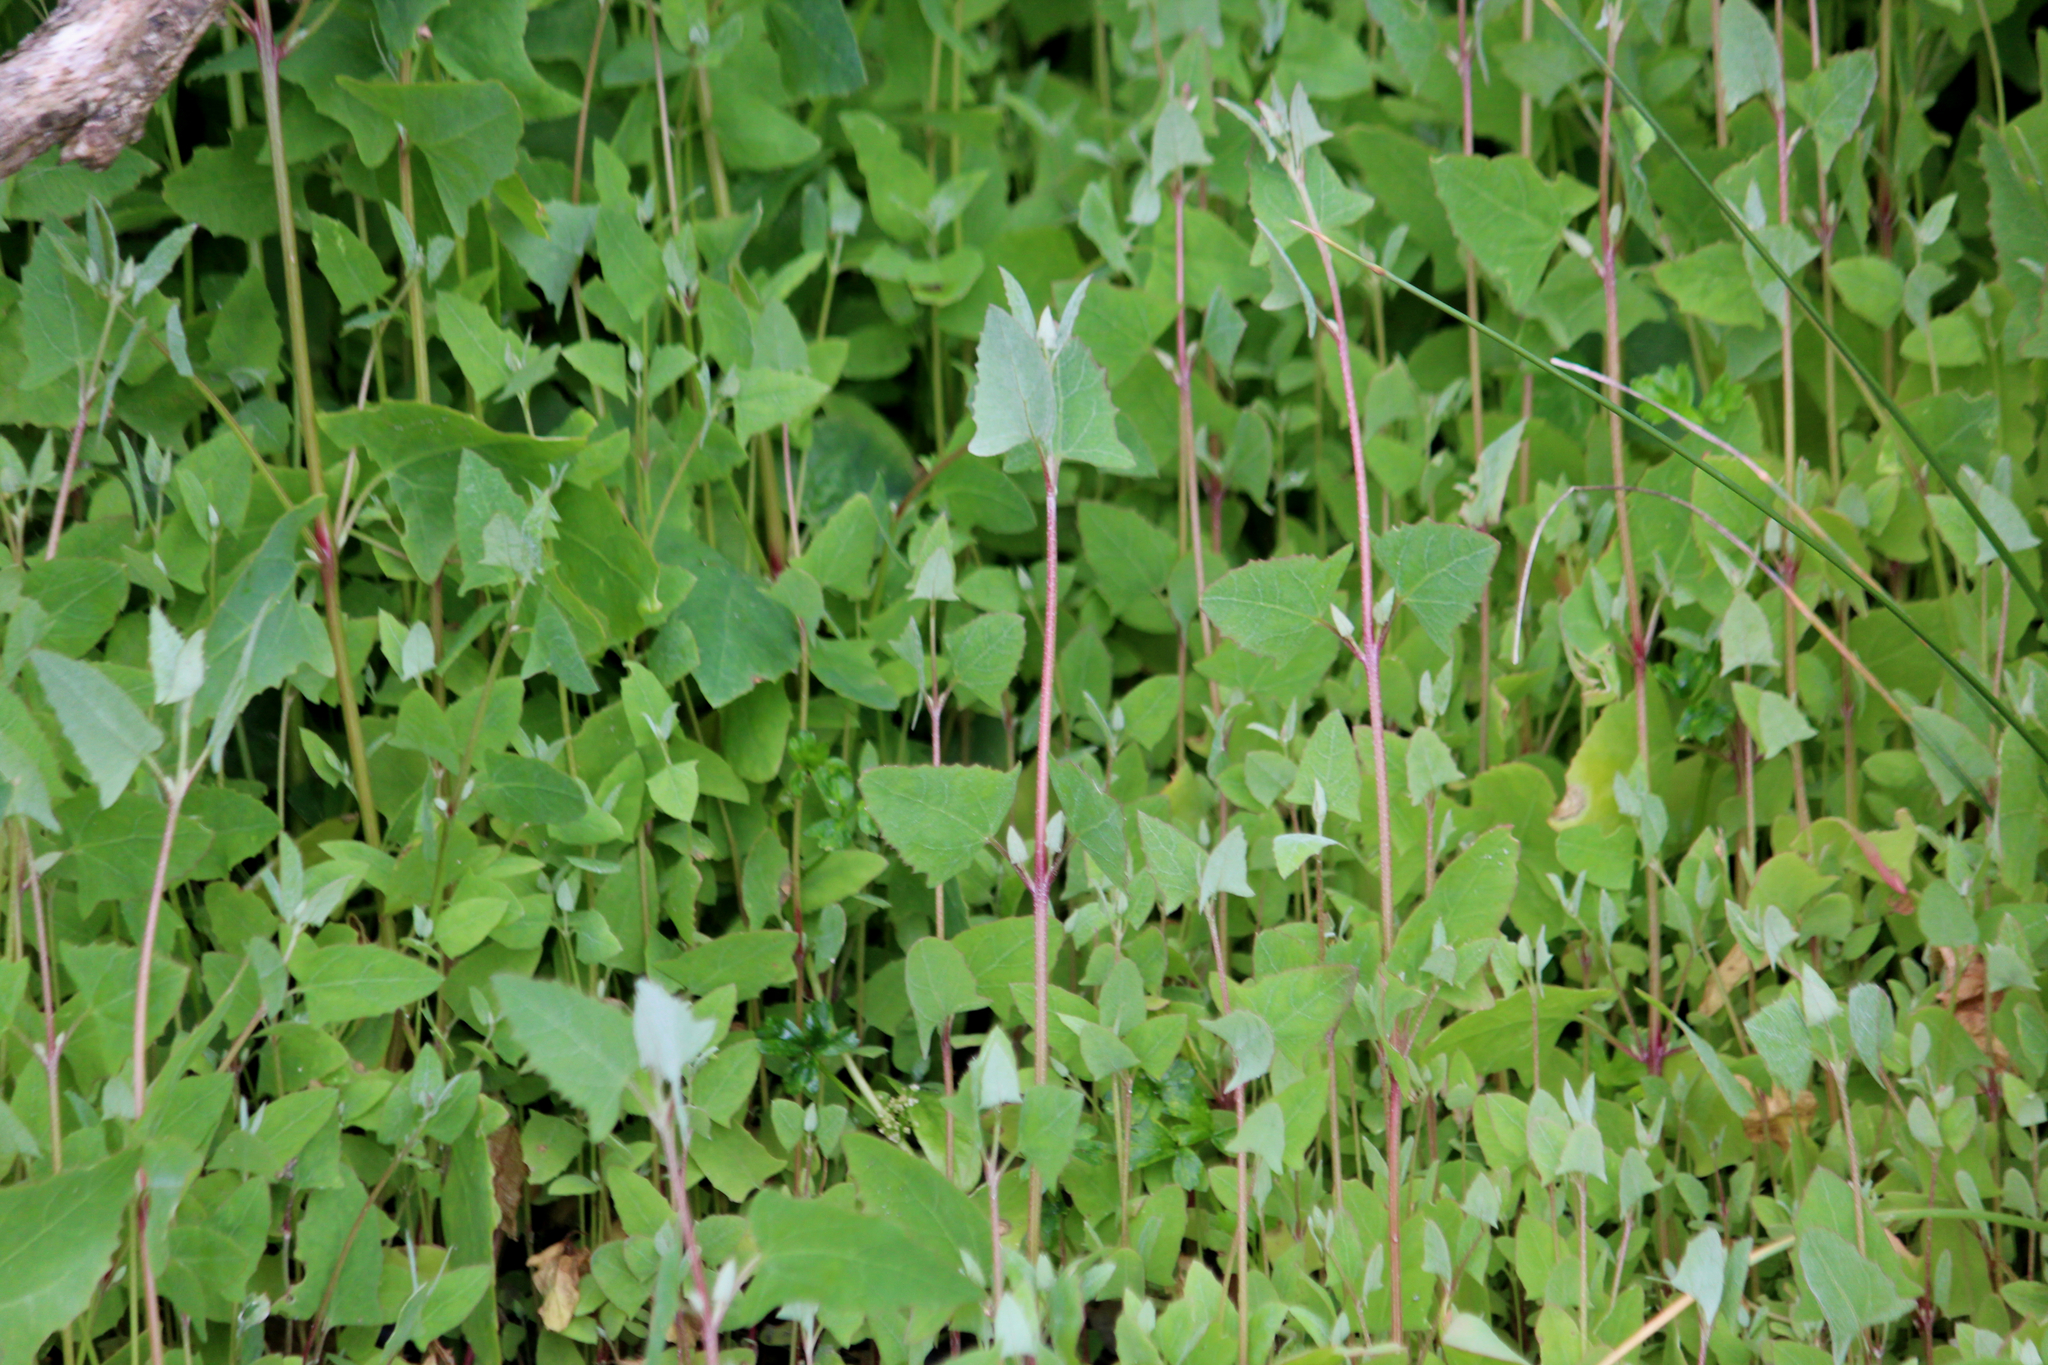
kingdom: Plantae
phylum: Tracheophyta
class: Magnoliopsida
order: Caryophyllales
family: Amaranthaceae
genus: Atriplex
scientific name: Atriplex prostrata
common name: Spear-leaved orache
